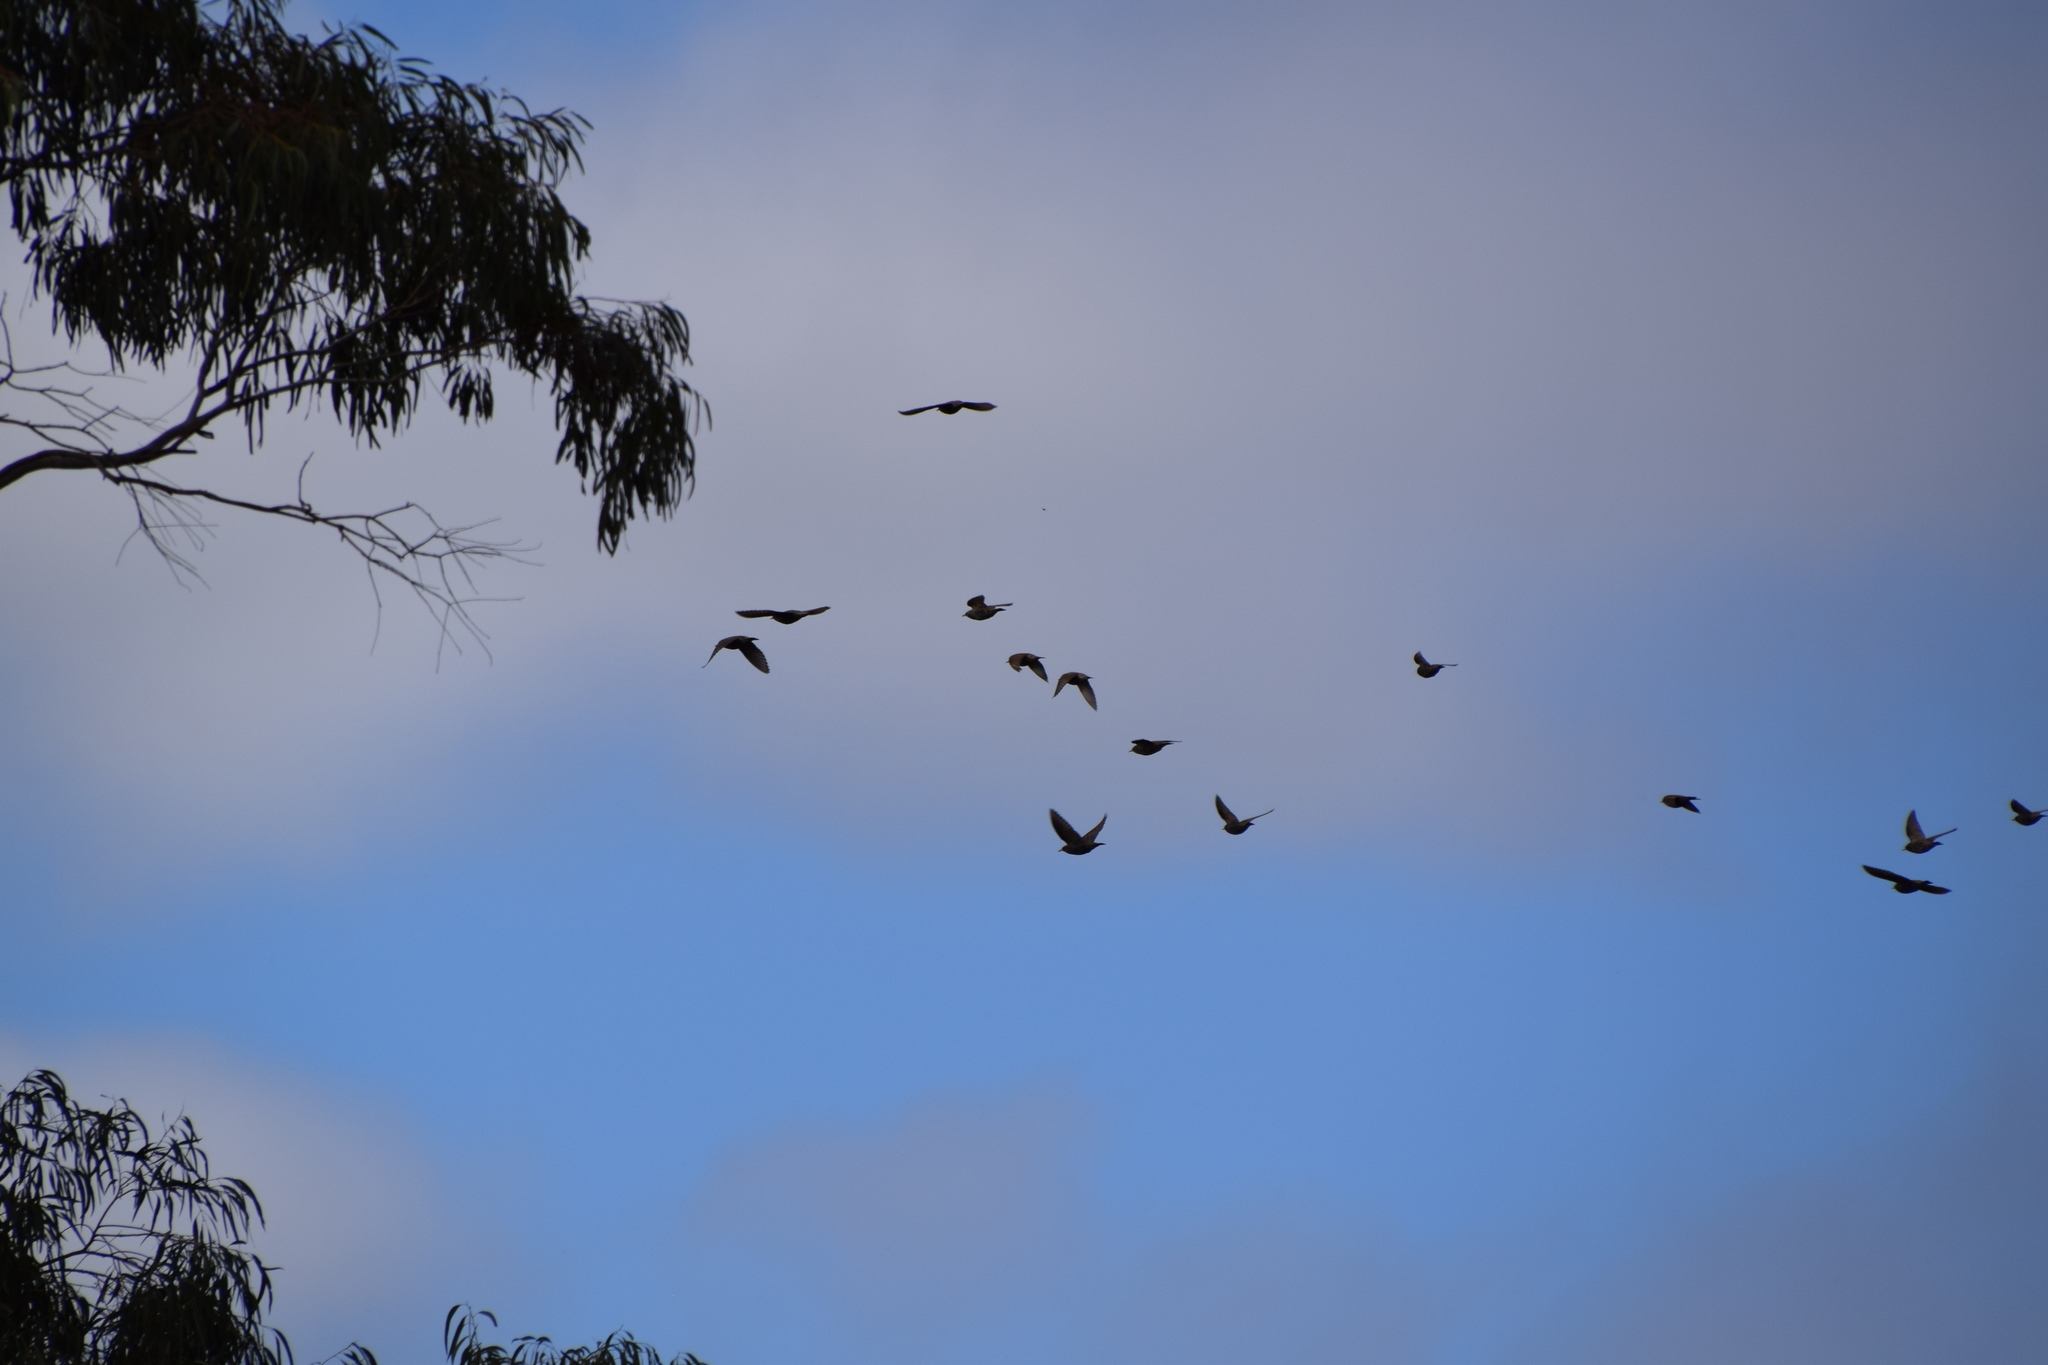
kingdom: Animalia
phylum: Chordata
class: Aves
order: Passeriformes
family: Sturnidae
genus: Sturnus
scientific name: Sturnus vulgaris
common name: Common starling
